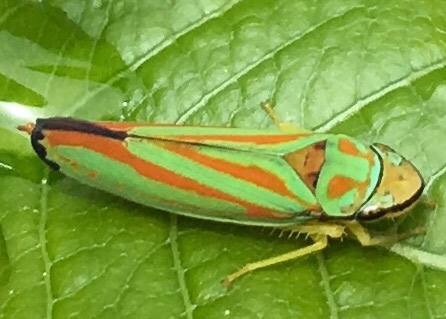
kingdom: Animalia
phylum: Arthropoda
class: Insecta
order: Hemiptera
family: Cicadellidae
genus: Graphocephala
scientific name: Graphocephala coccinea
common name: Candy-striped leafhopper
